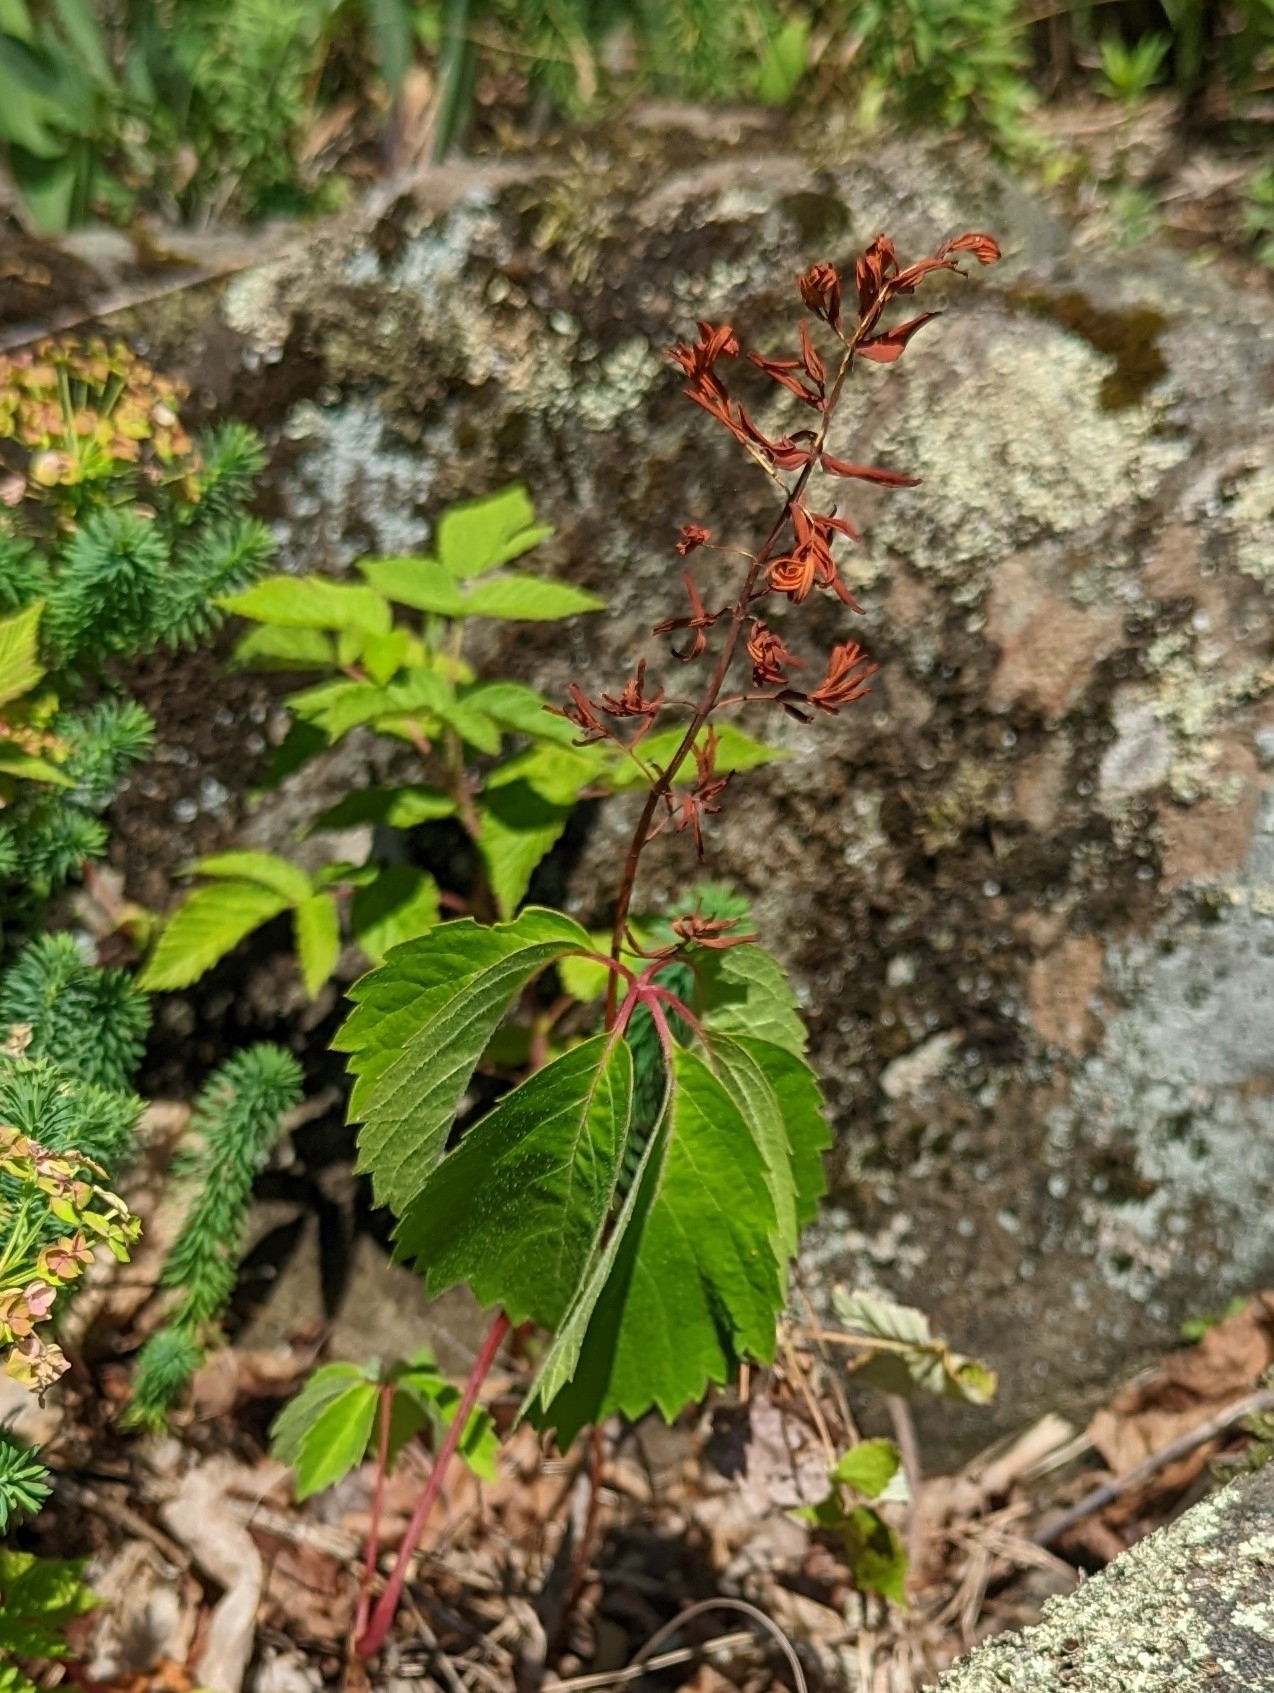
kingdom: Plantae
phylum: Tracheophyta
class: Magnoliopsida
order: Vitales
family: Vitaceae
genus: Parthenocissus
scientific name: Parthenocissus quinquefolia
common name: Virginia-creeper
